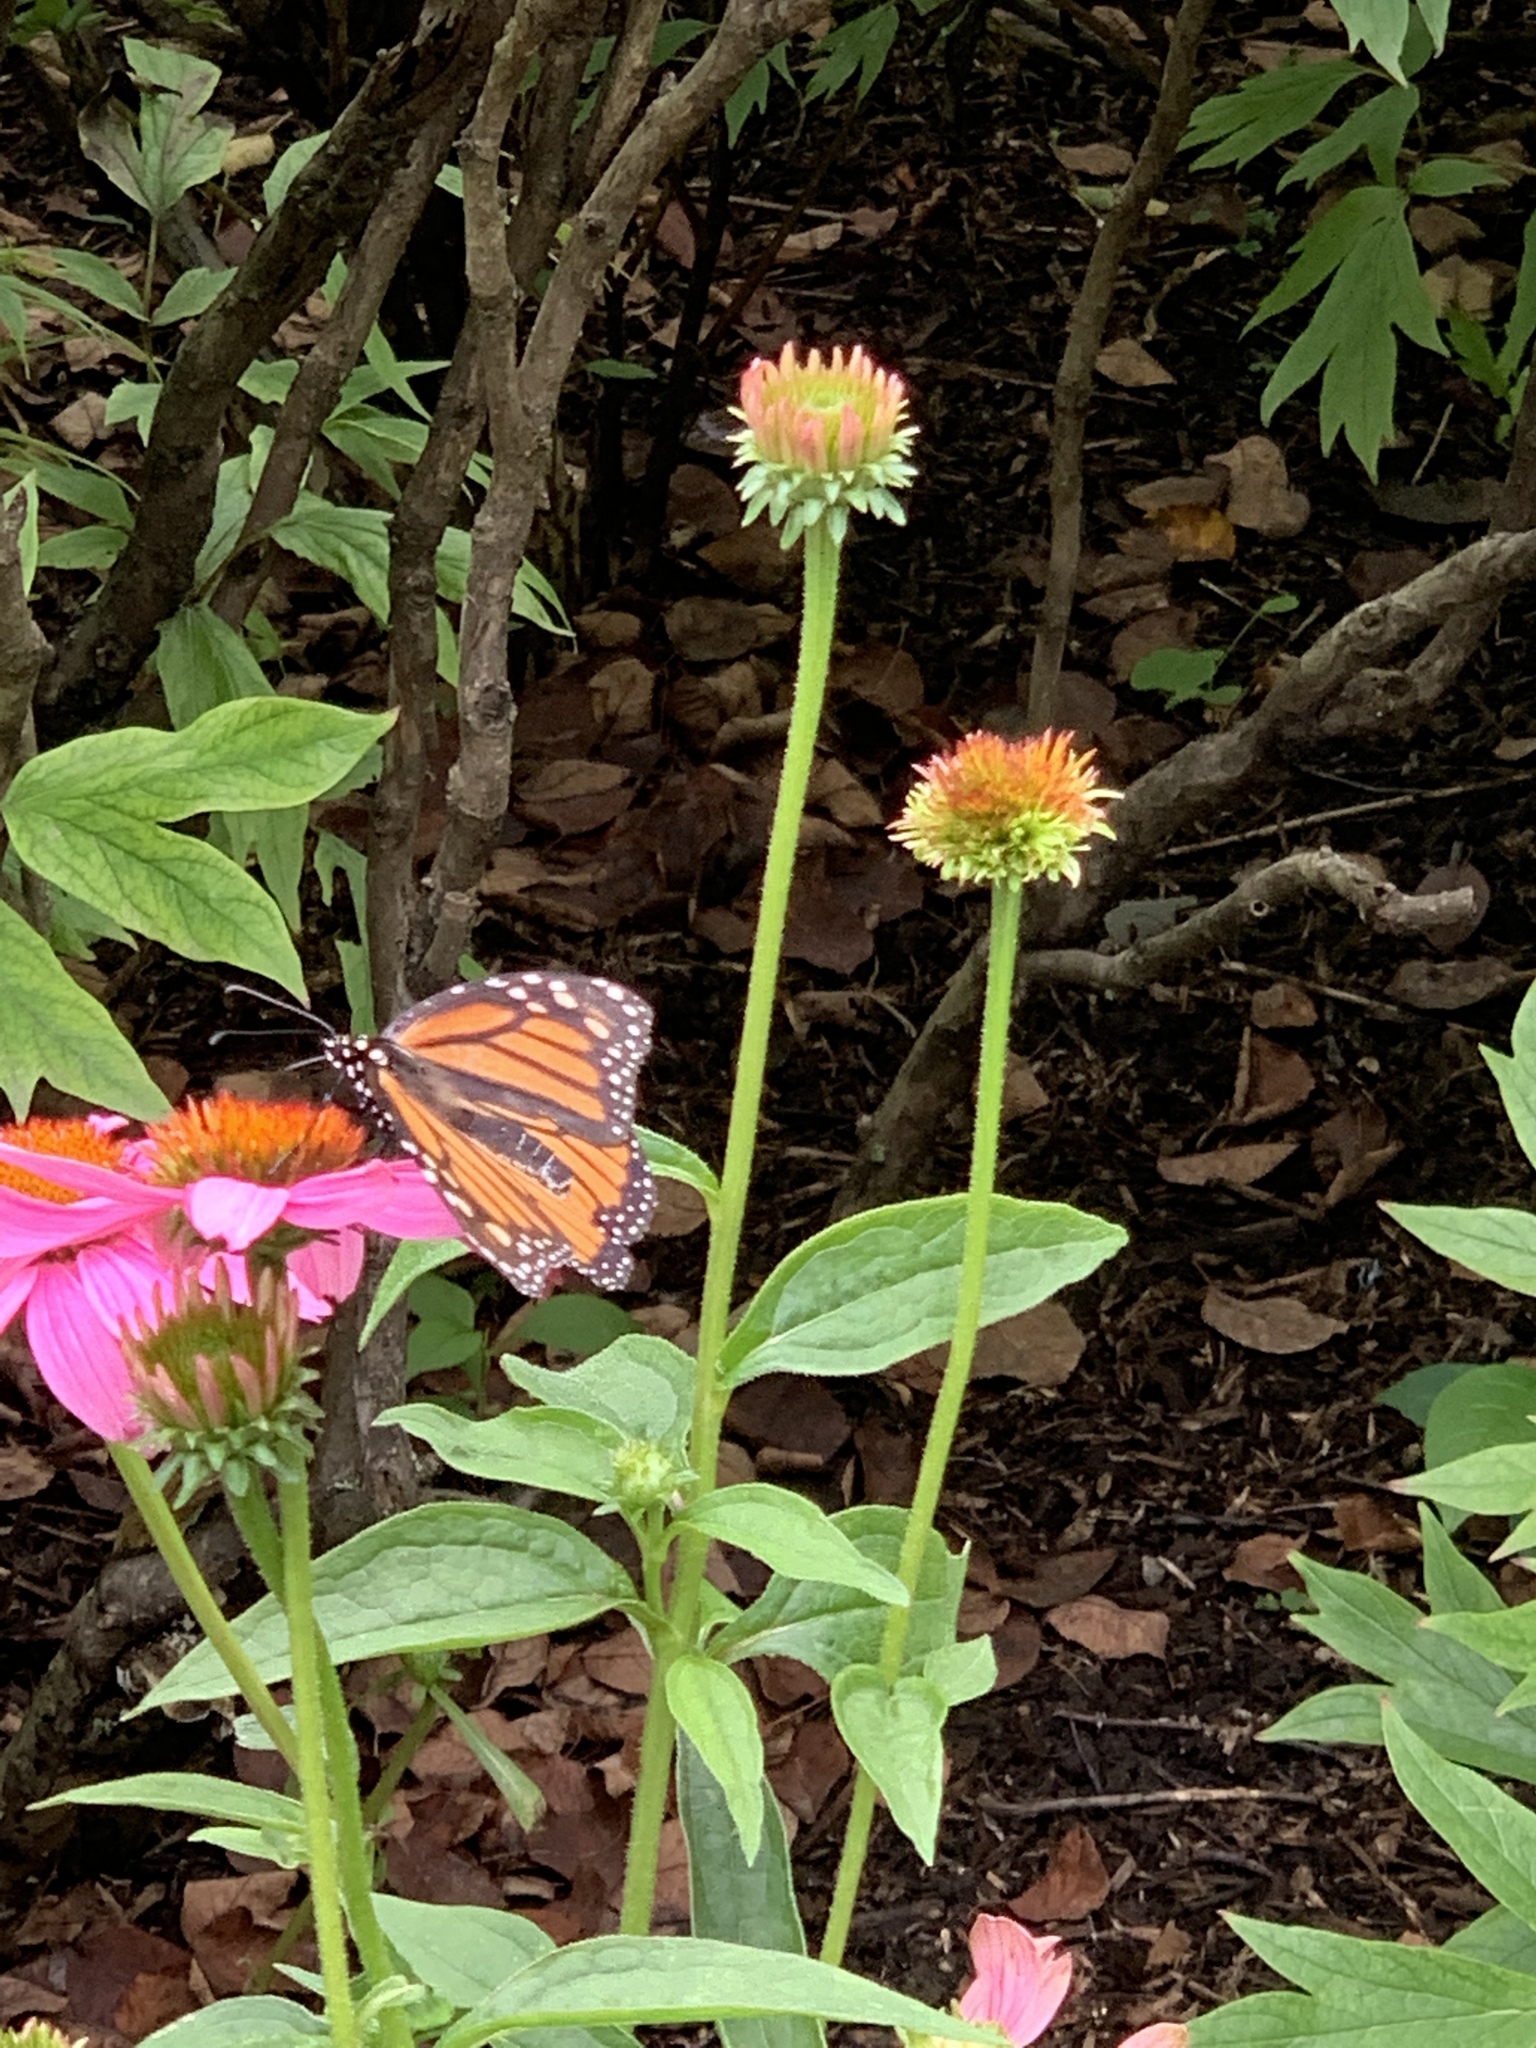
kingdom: Animalia
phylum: Arthropoda
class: Insecta
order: Lepidoptera
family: Nymphalidae
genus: Danaus
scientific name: Danaus plexippus
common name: Monarch
